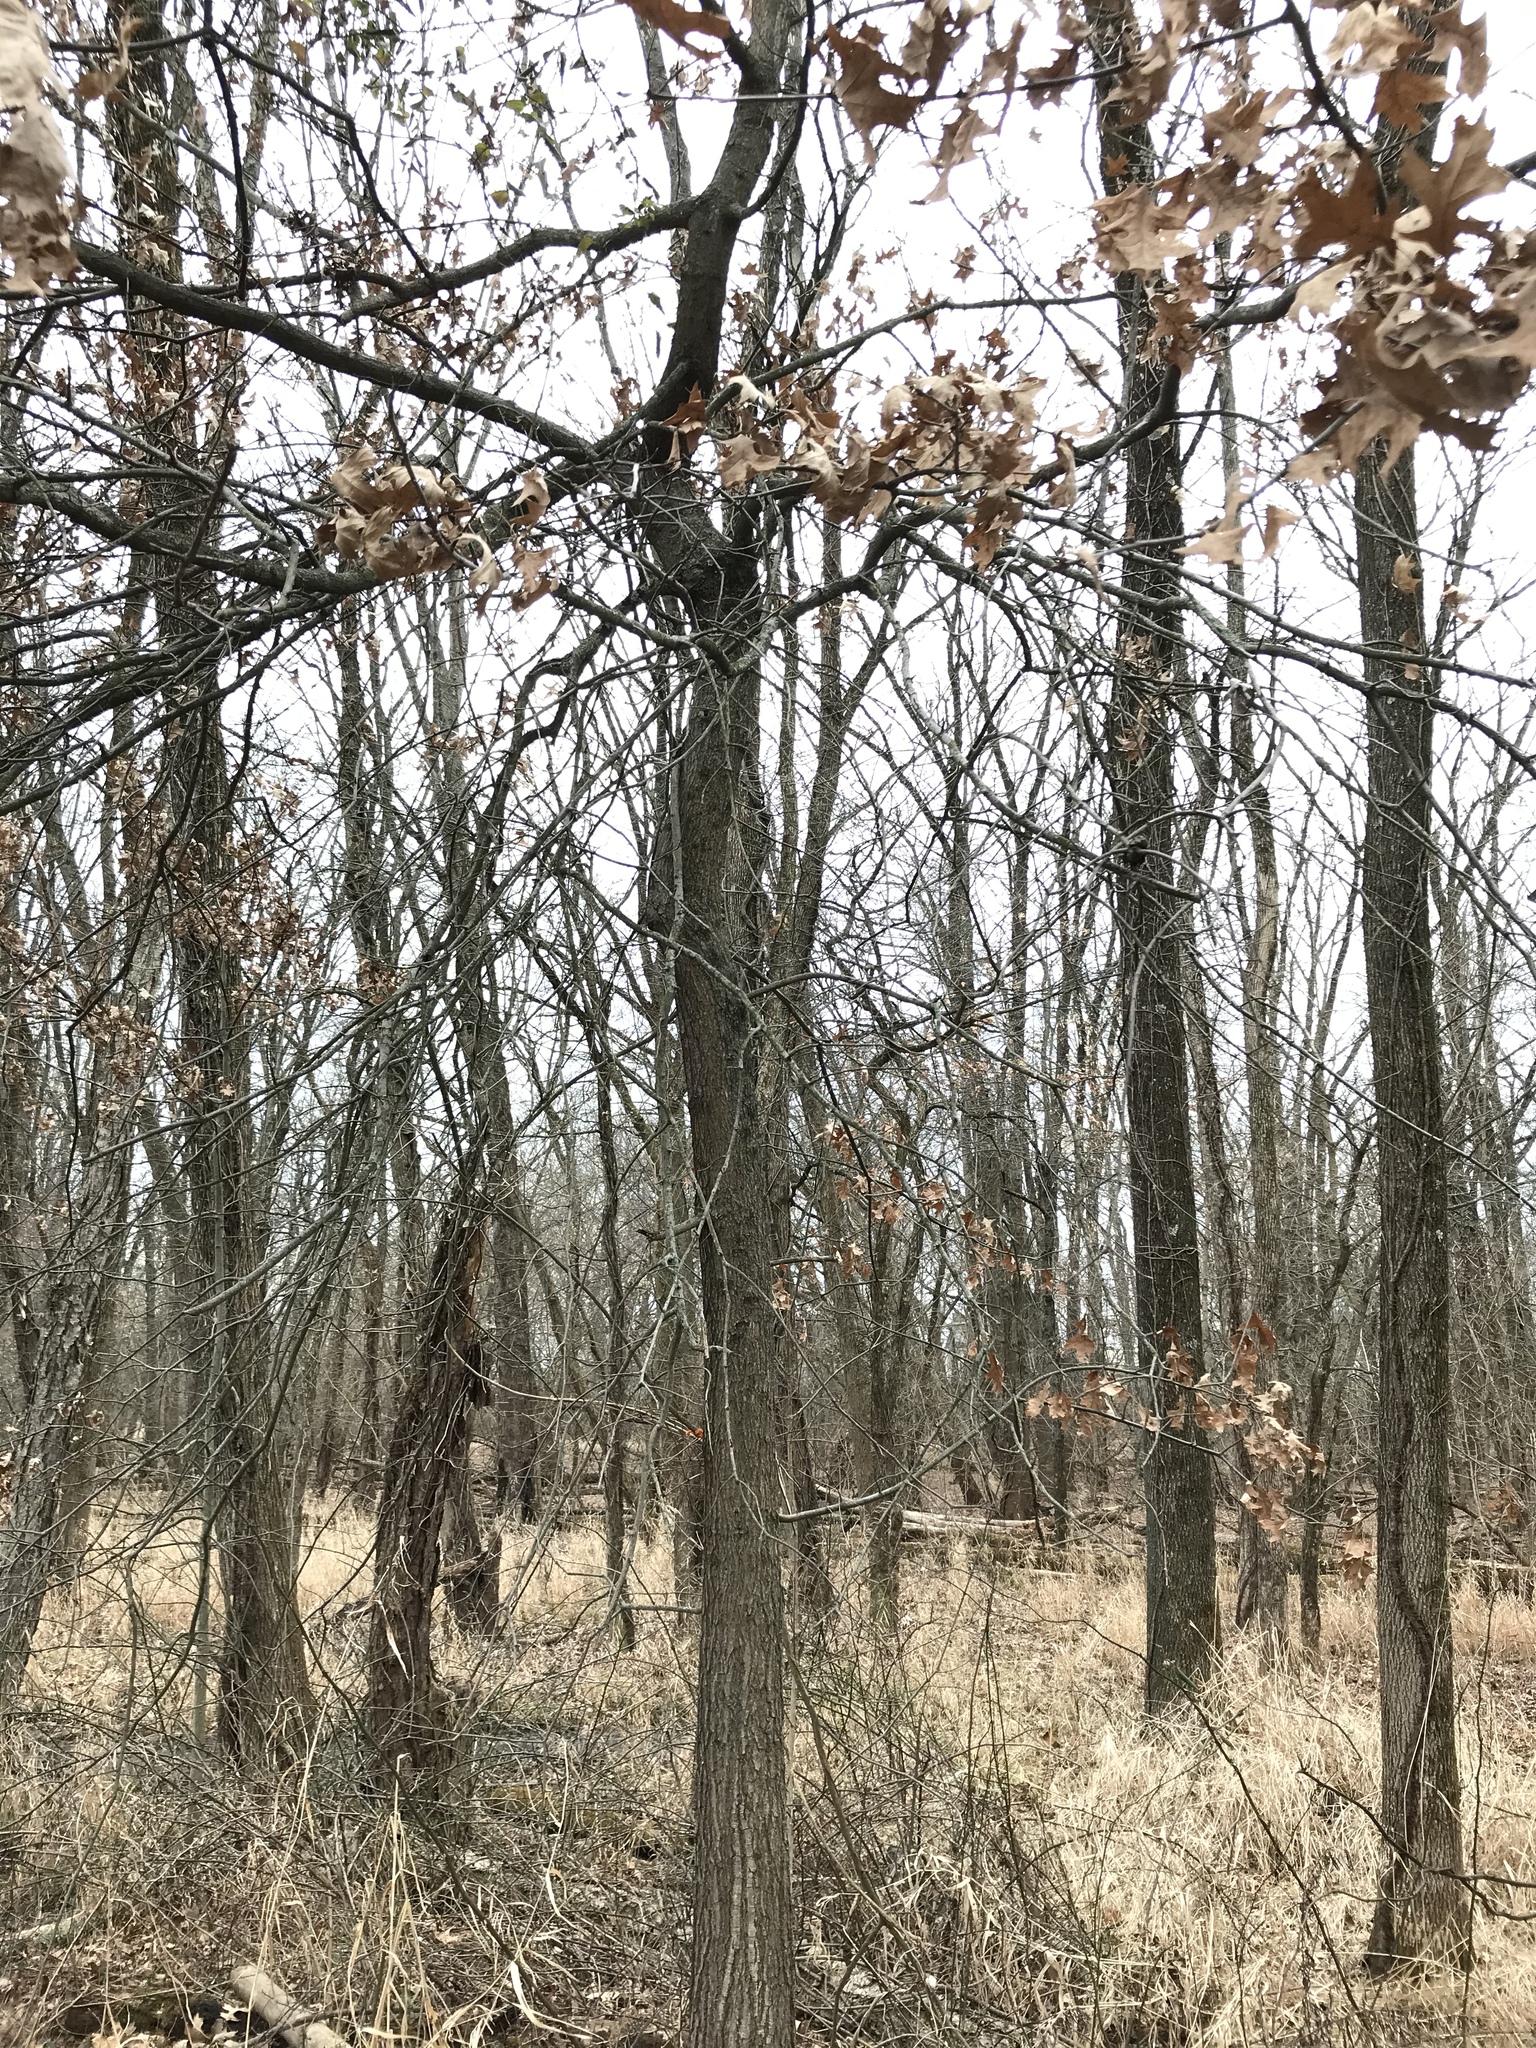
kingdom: Plantae
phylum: Tracheophyta
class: Magnoliopsida
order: Fagales
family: Fagaceae
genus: Quercus
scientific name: Quercus palustris
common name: Pin oak
